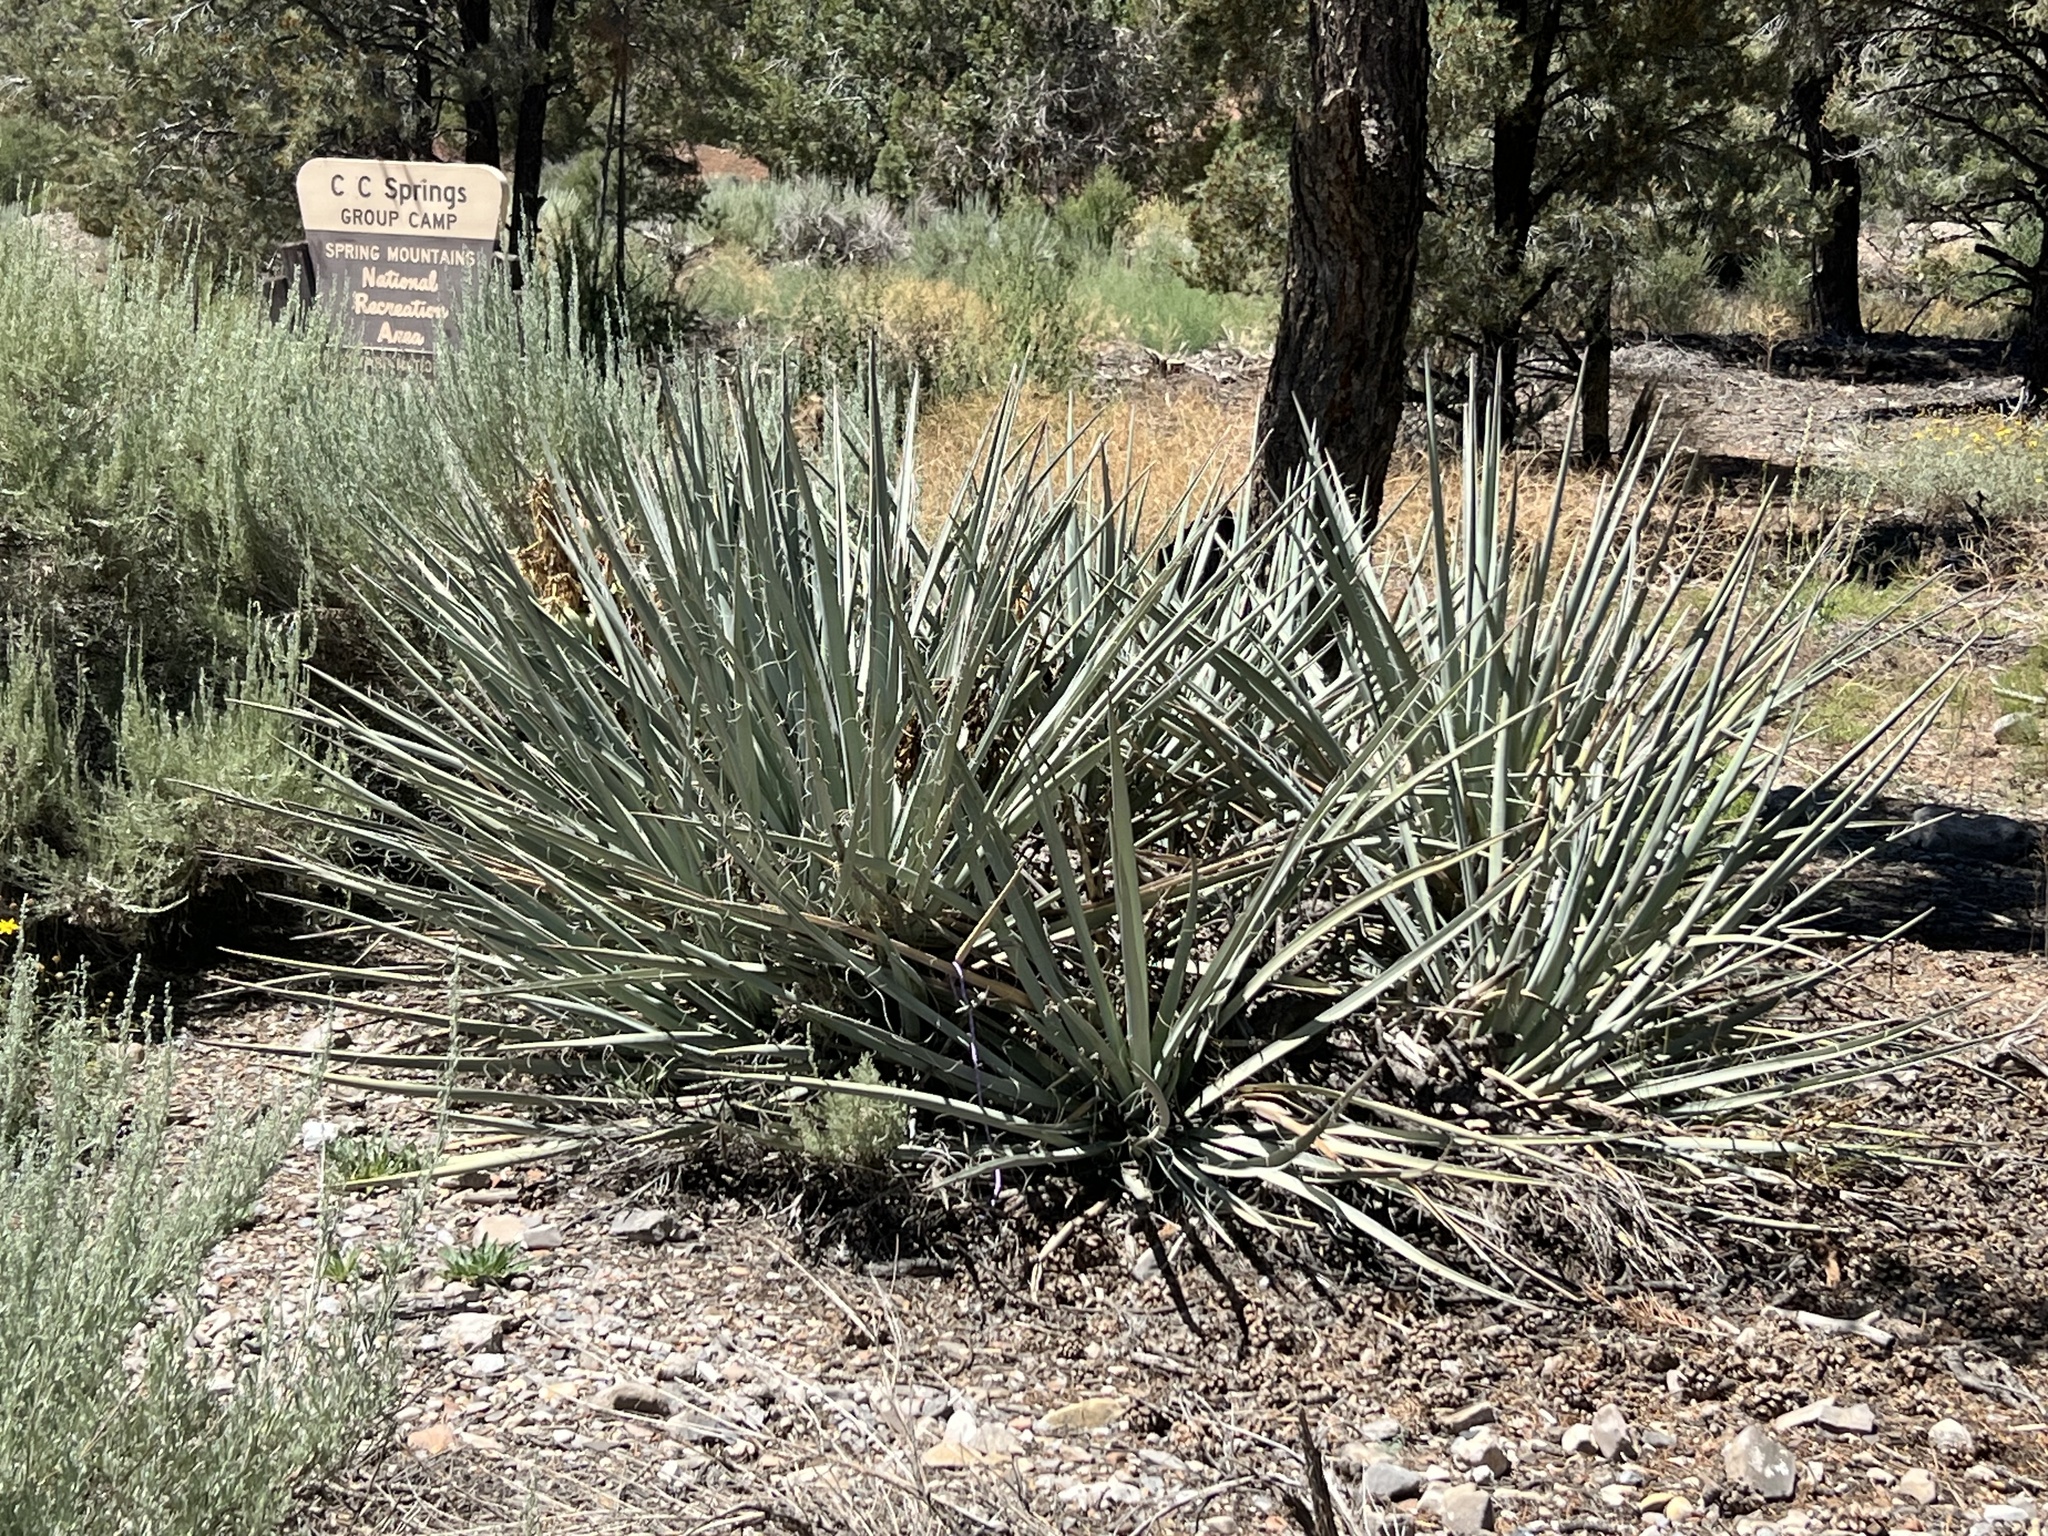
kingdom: Plantae
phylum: Tracheophyta
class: Liliopsida
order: Asparagales
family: Asparagaceae
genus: Yucca
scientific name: Yucca baccata
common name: Banana yucca
